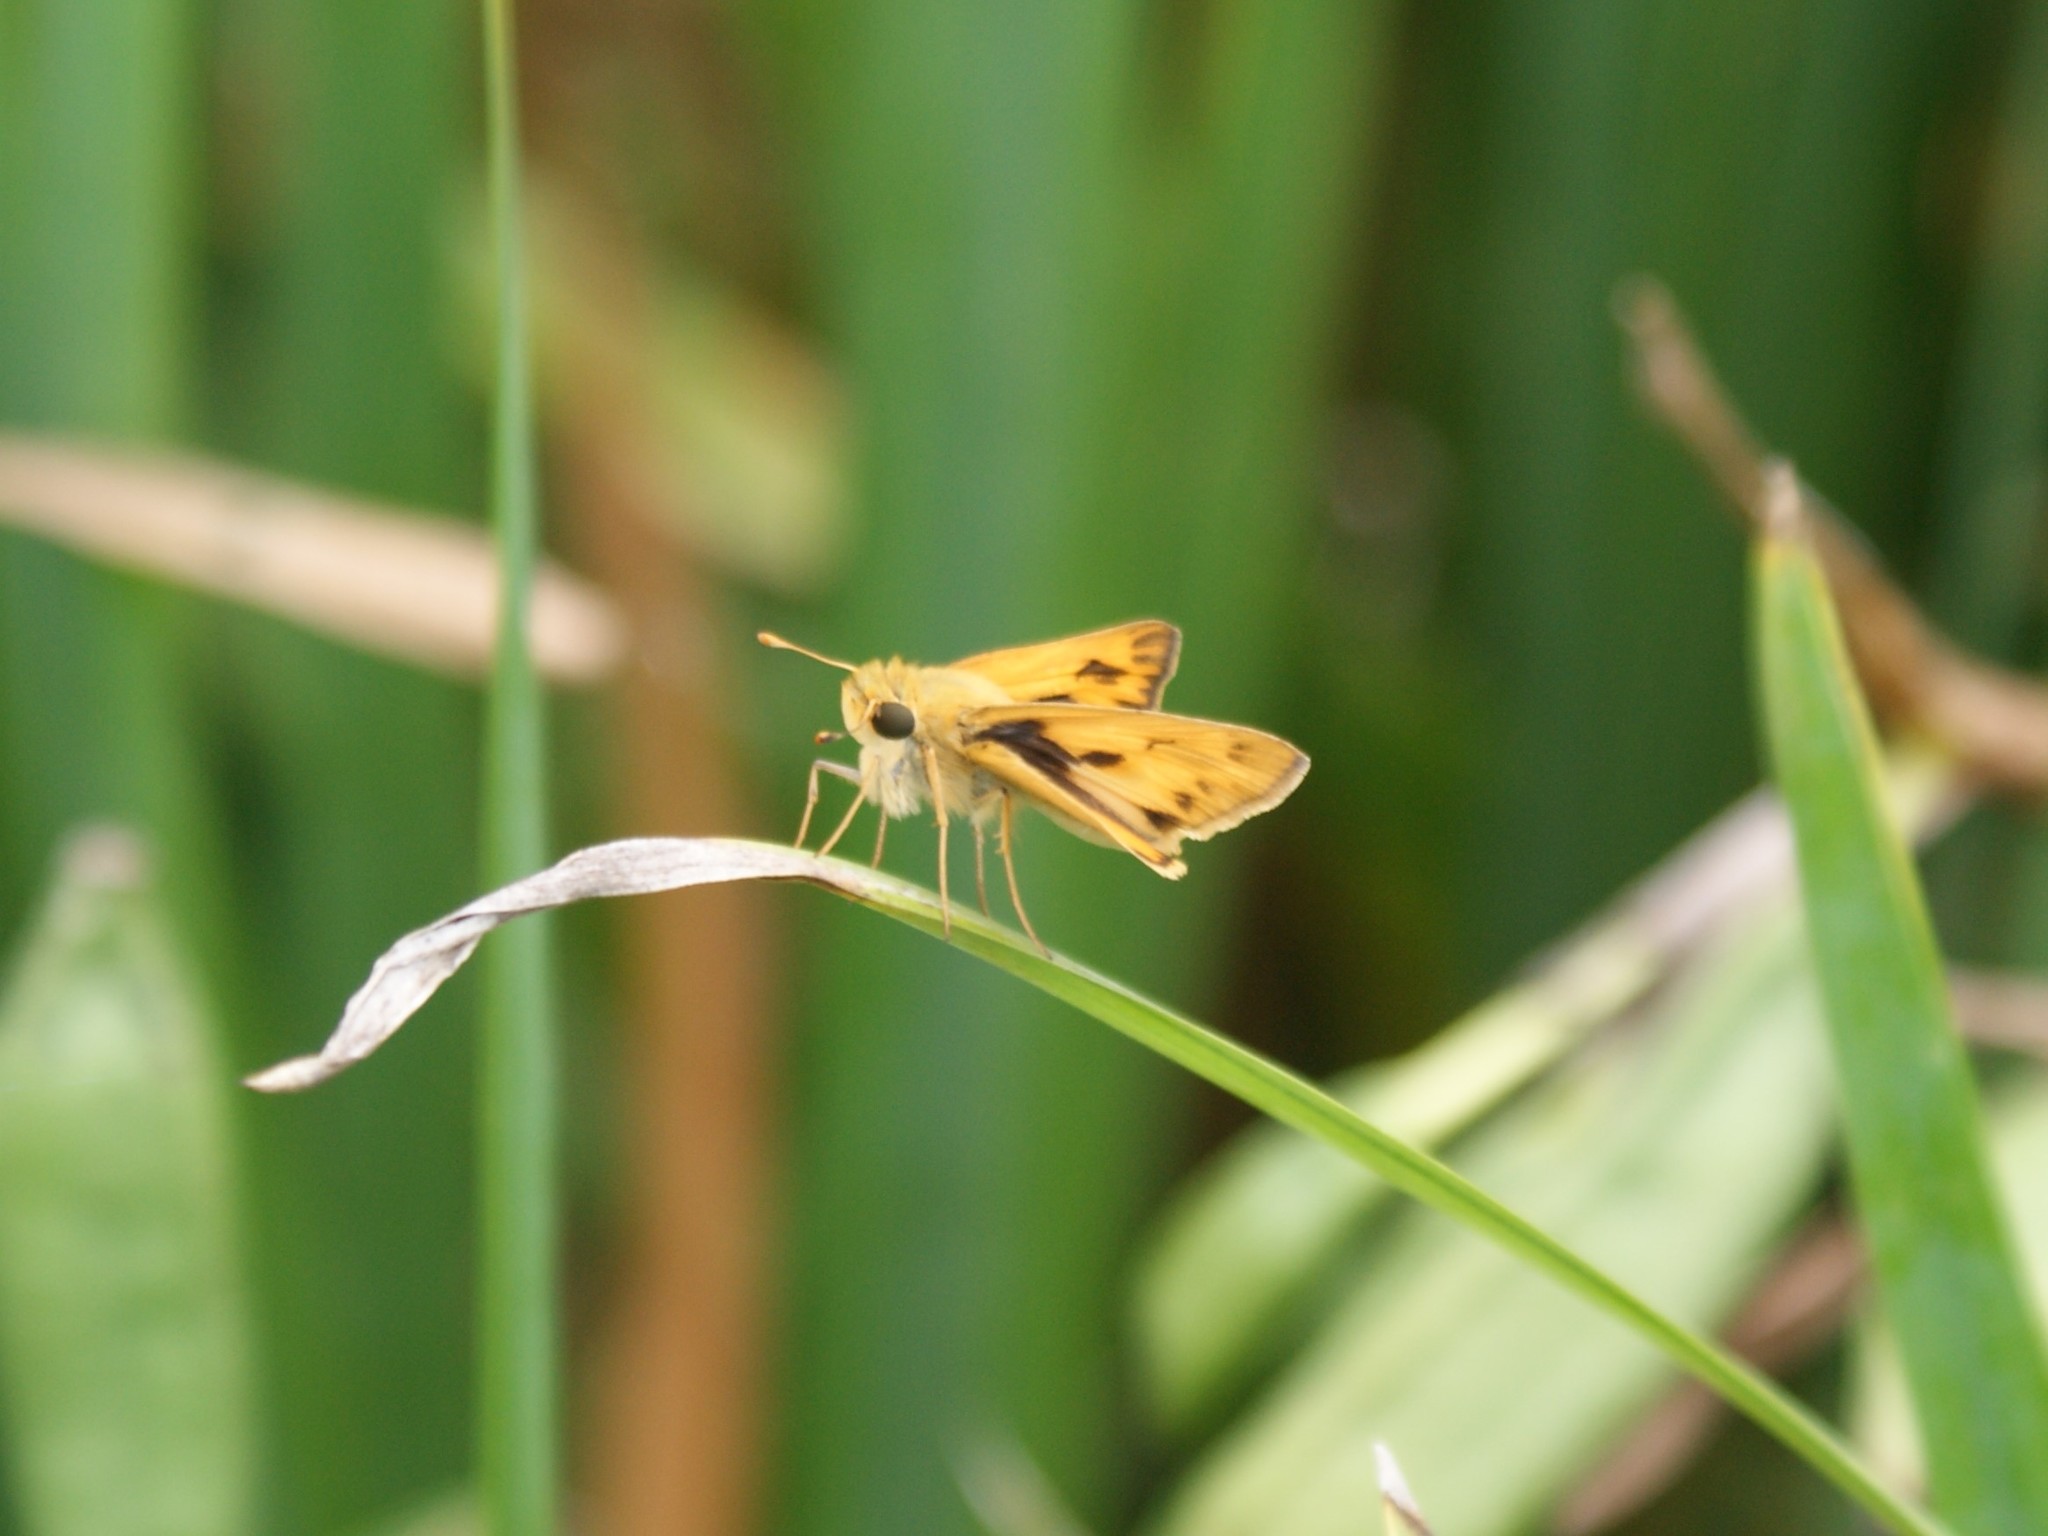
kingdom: Animalia
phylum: Arthropoda
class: Insecta
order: Lepidoptera
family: Hesperiidae
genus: Hylephila
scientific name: Hylephila phyleus
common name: Fiery skipper
